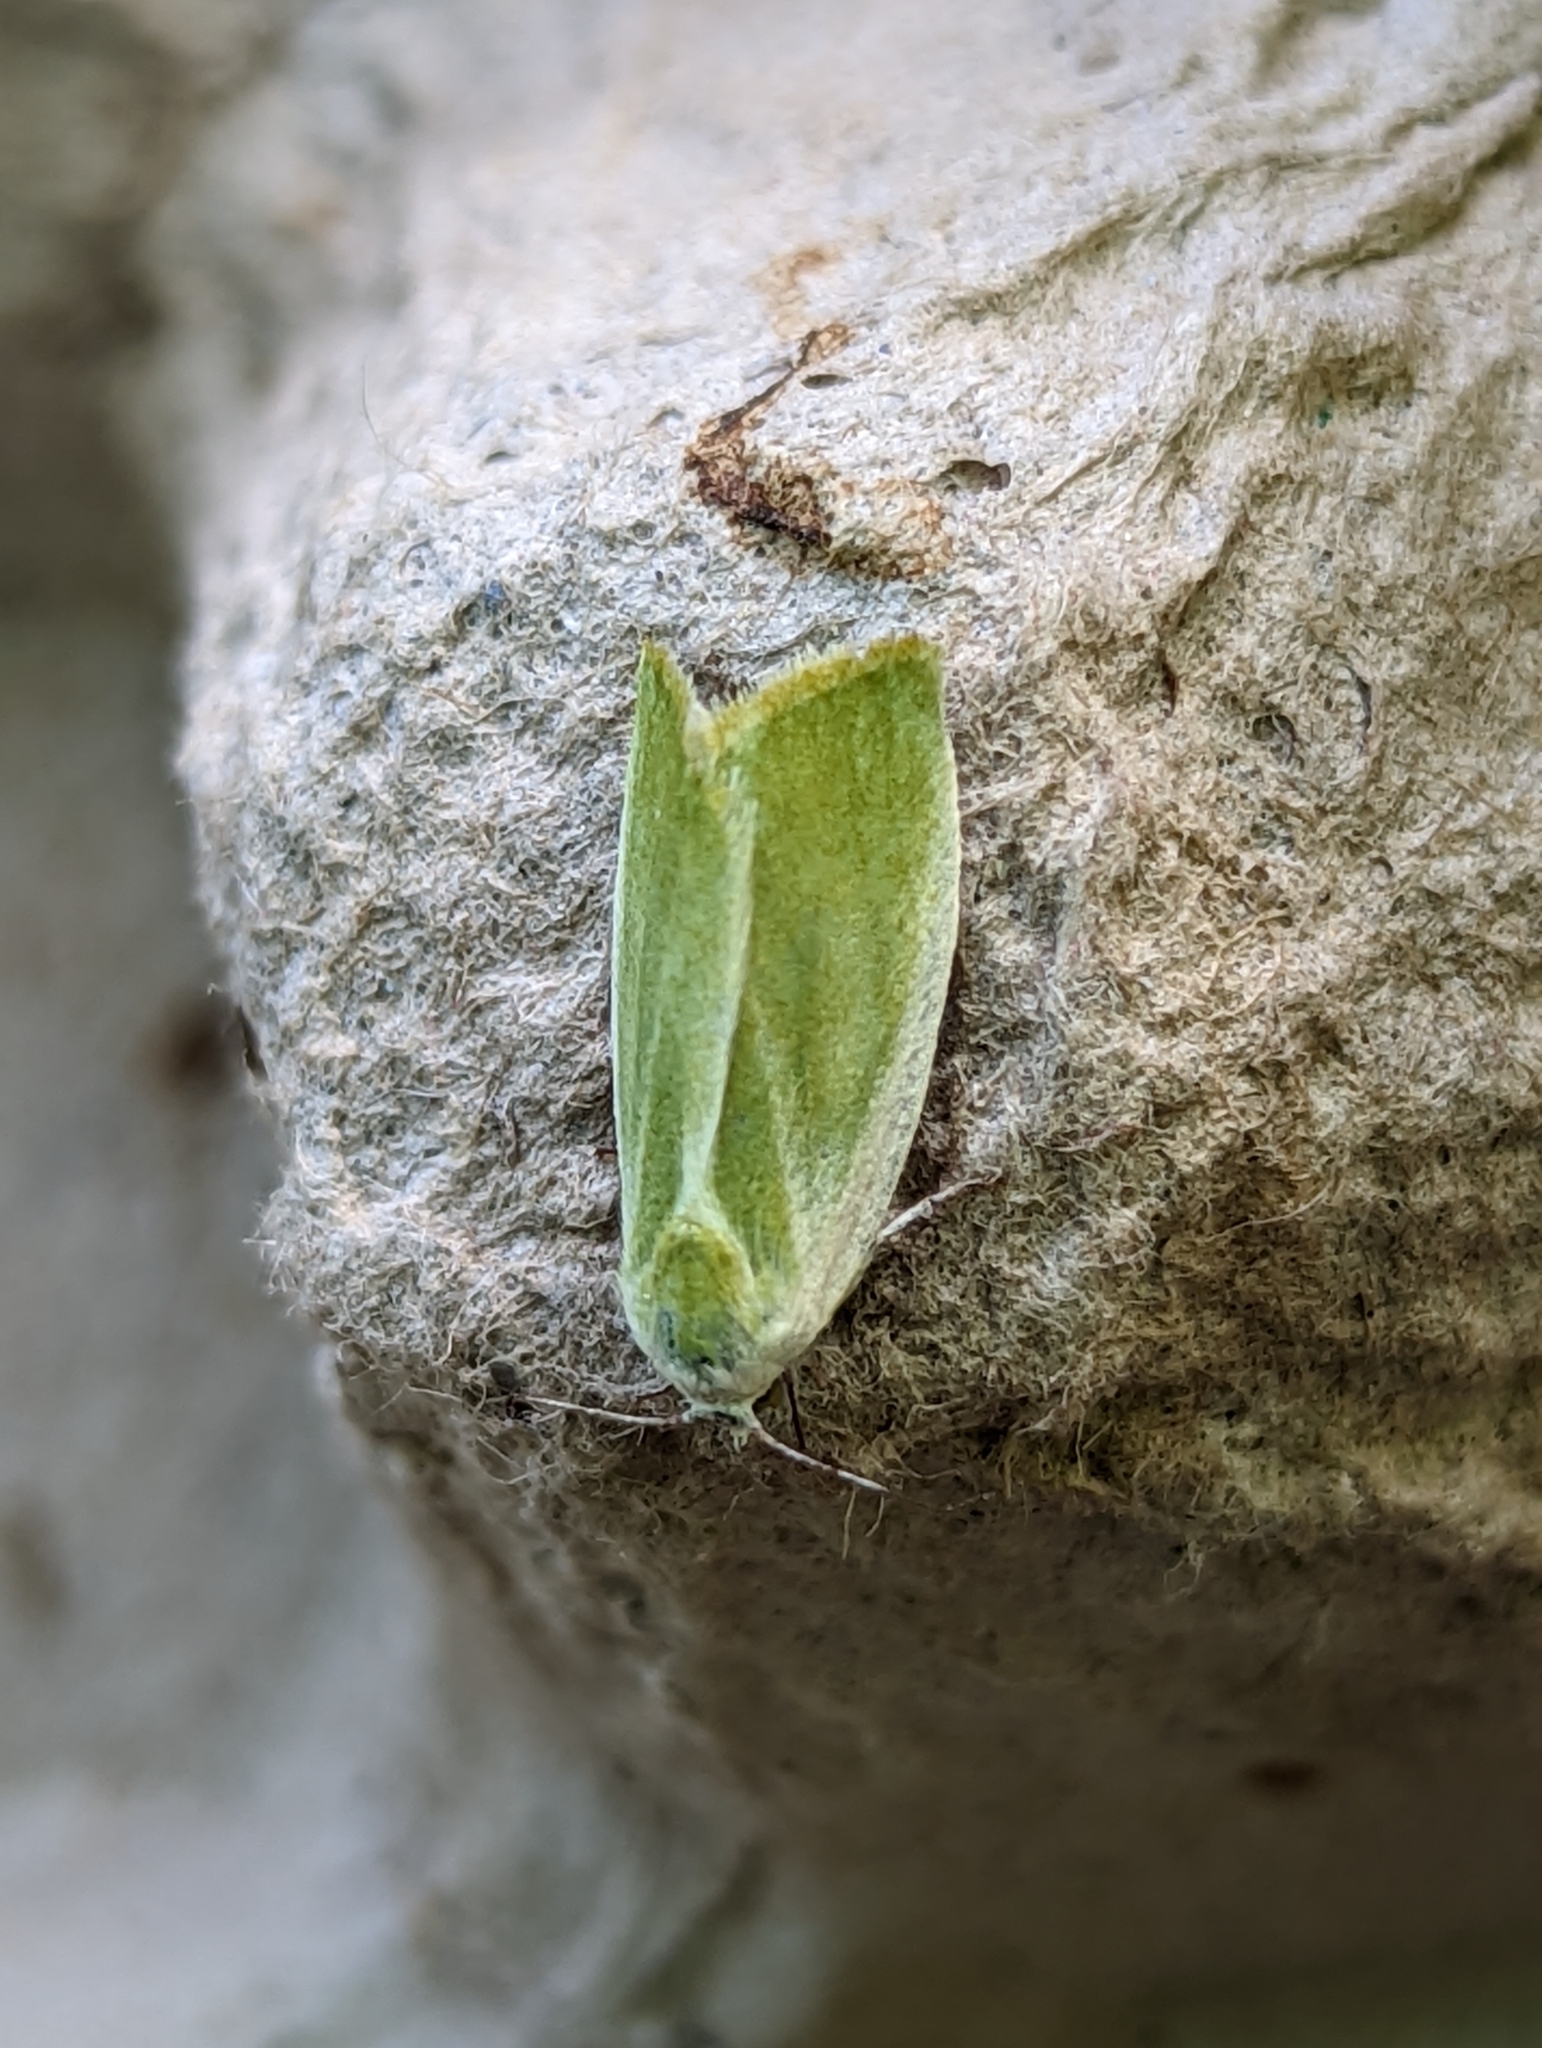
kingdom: Animalia
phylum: Arthropoda
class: Insecta
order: Lepidoptera
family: Nolidae
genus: Earias
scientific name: Earias clorana
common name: Cream-bordered green pea
